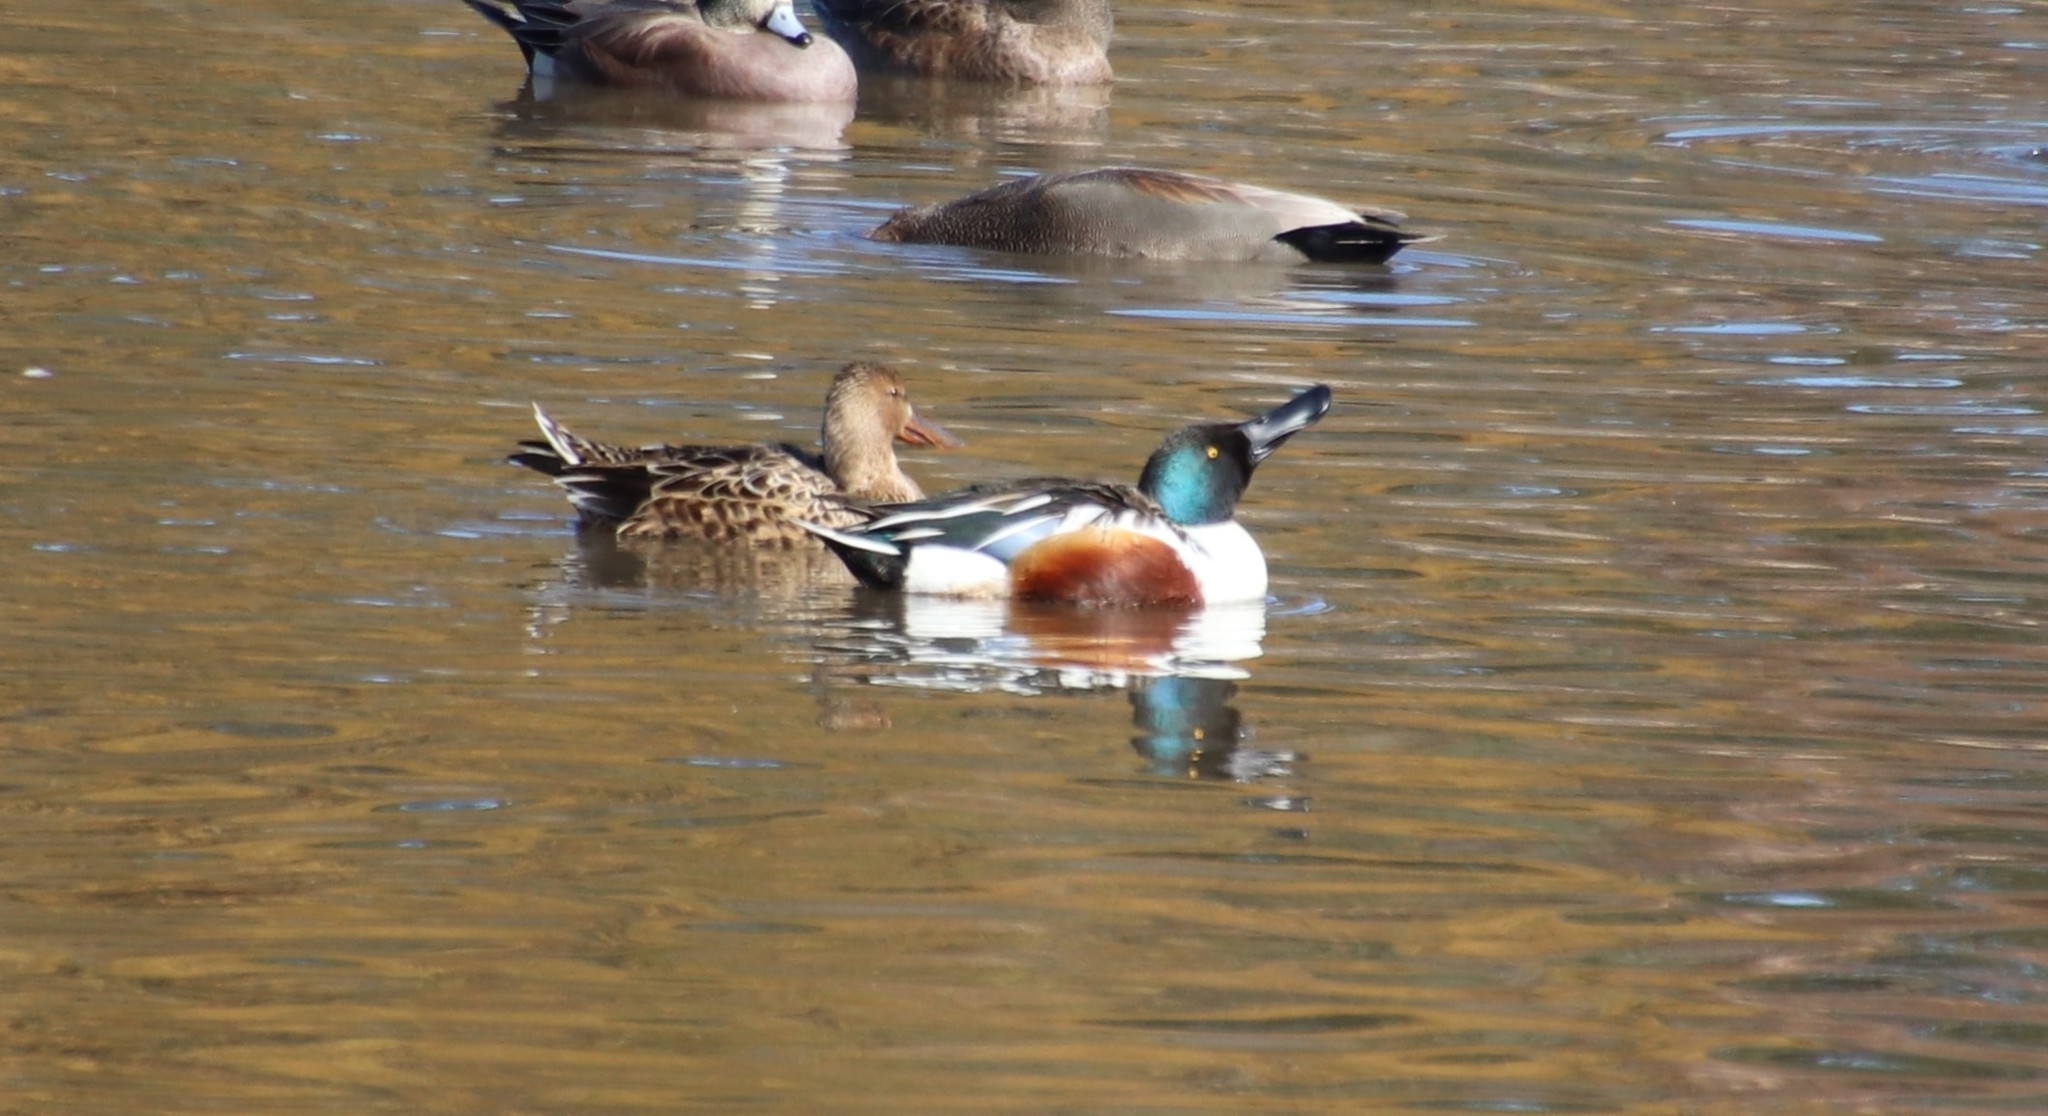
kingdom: Animalia
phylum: Chordata
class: Aves
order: Anseriformes
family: Anatidae
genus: Spatula
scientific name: Spatula clypeata
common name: Northern shoveler
